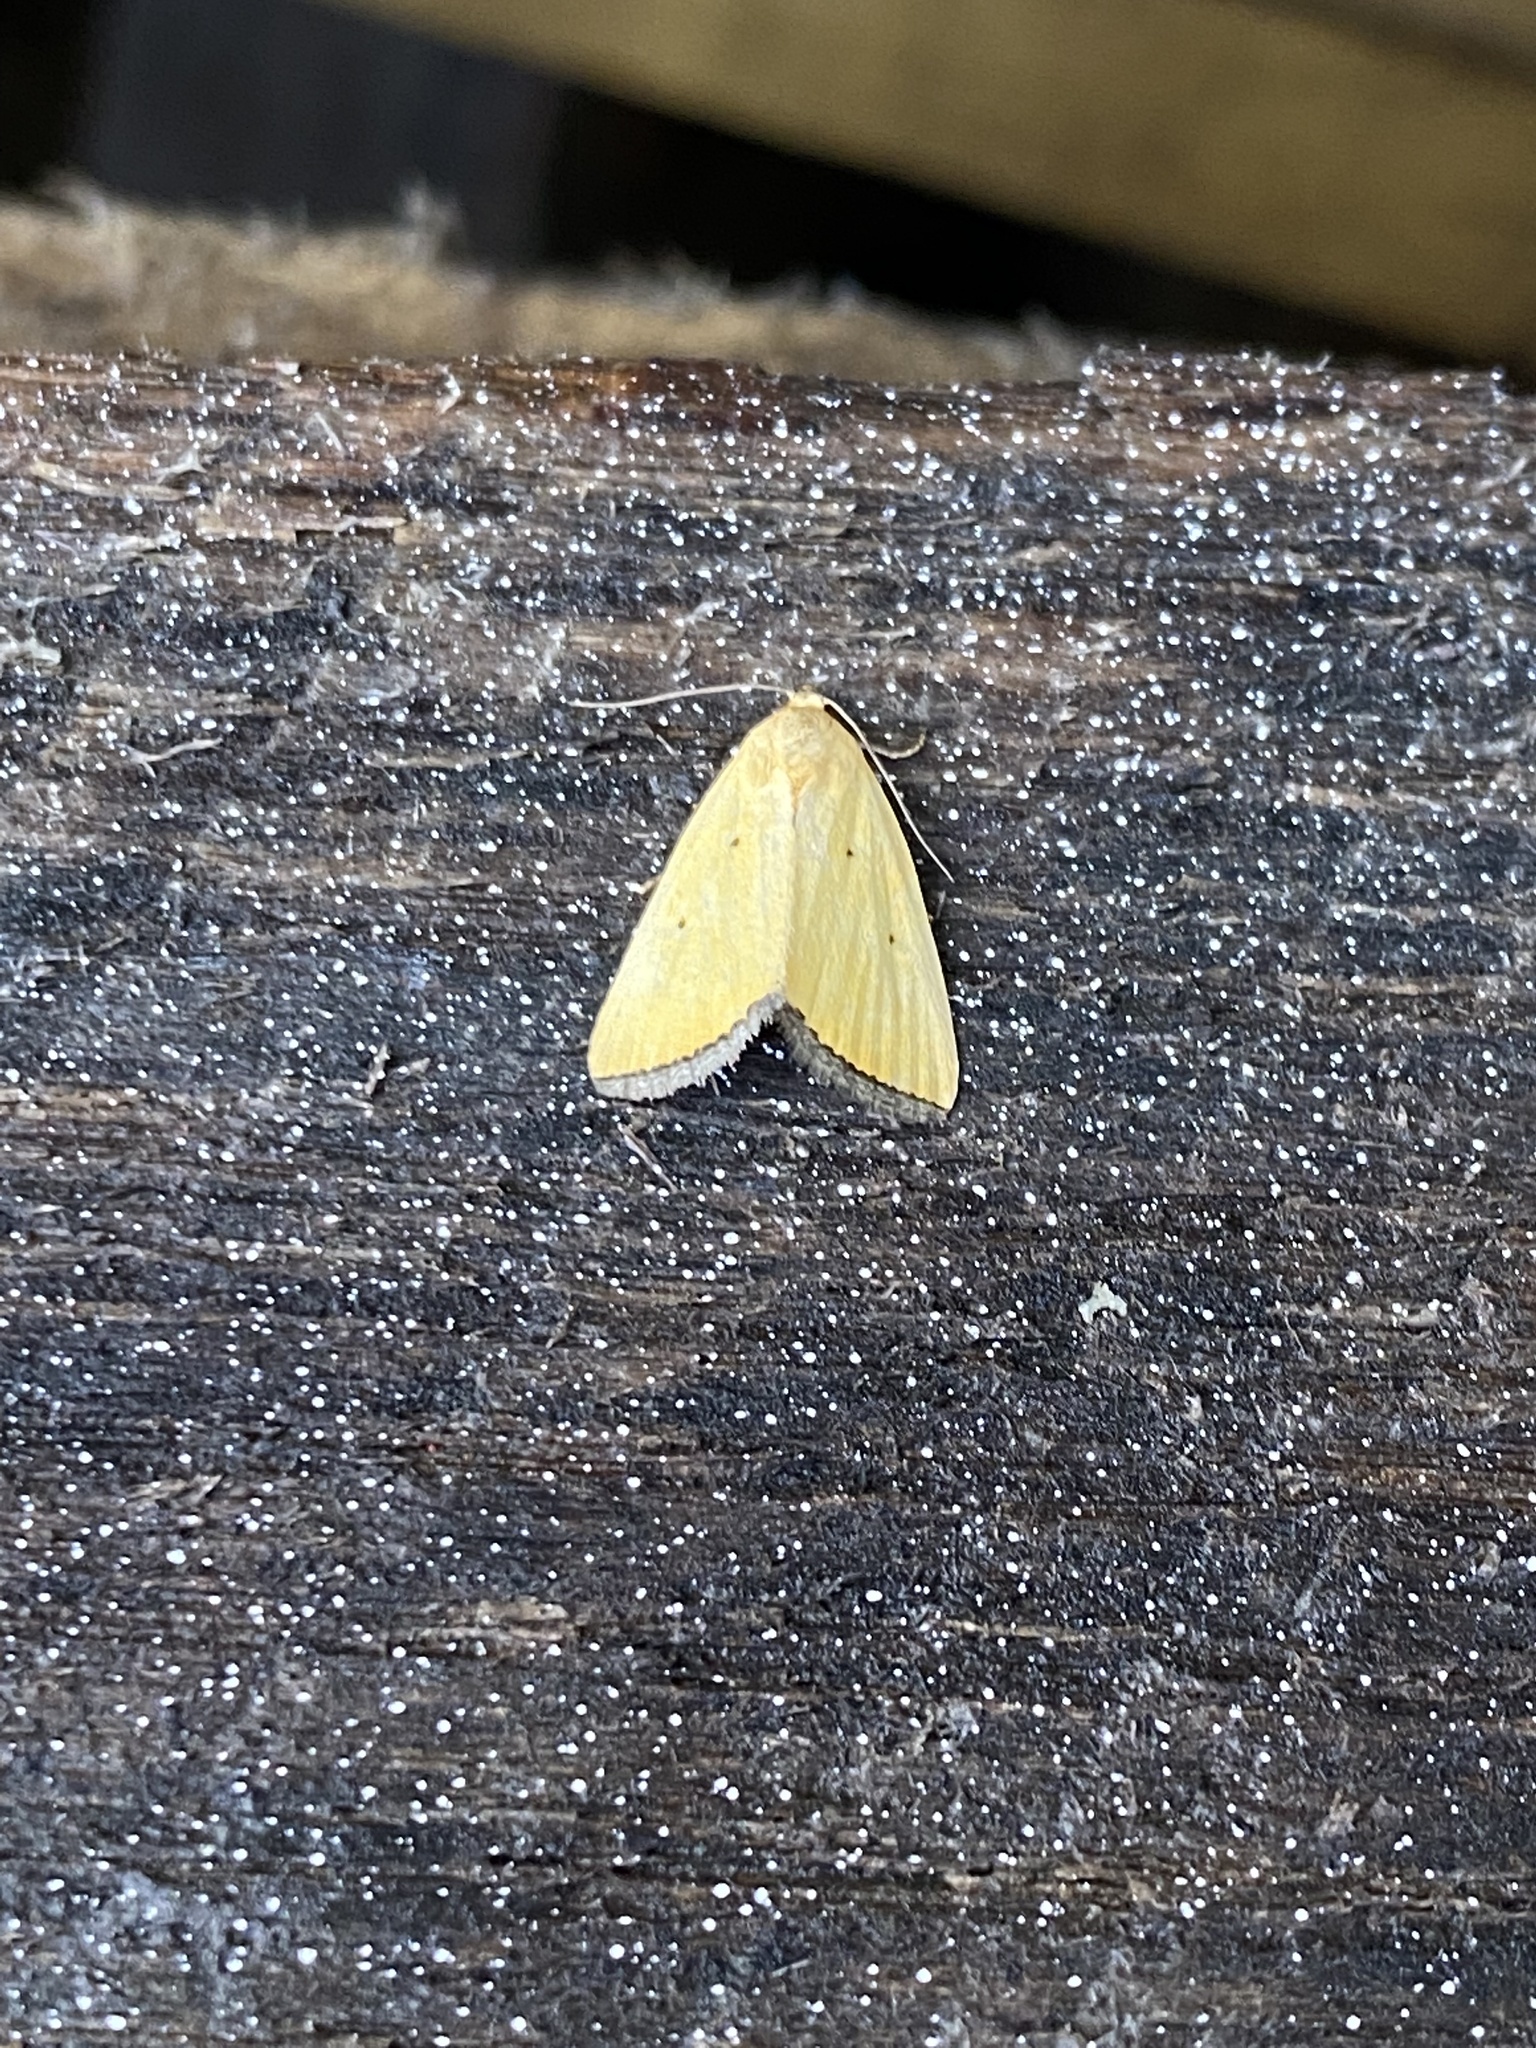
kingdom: Animalia
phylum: Arthropoda
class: Insecta
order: Lepidoptera
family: Noctuidae
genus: Marimatha
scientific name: Marimatha nigrofimbria
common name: Black-bordered lemon moth
